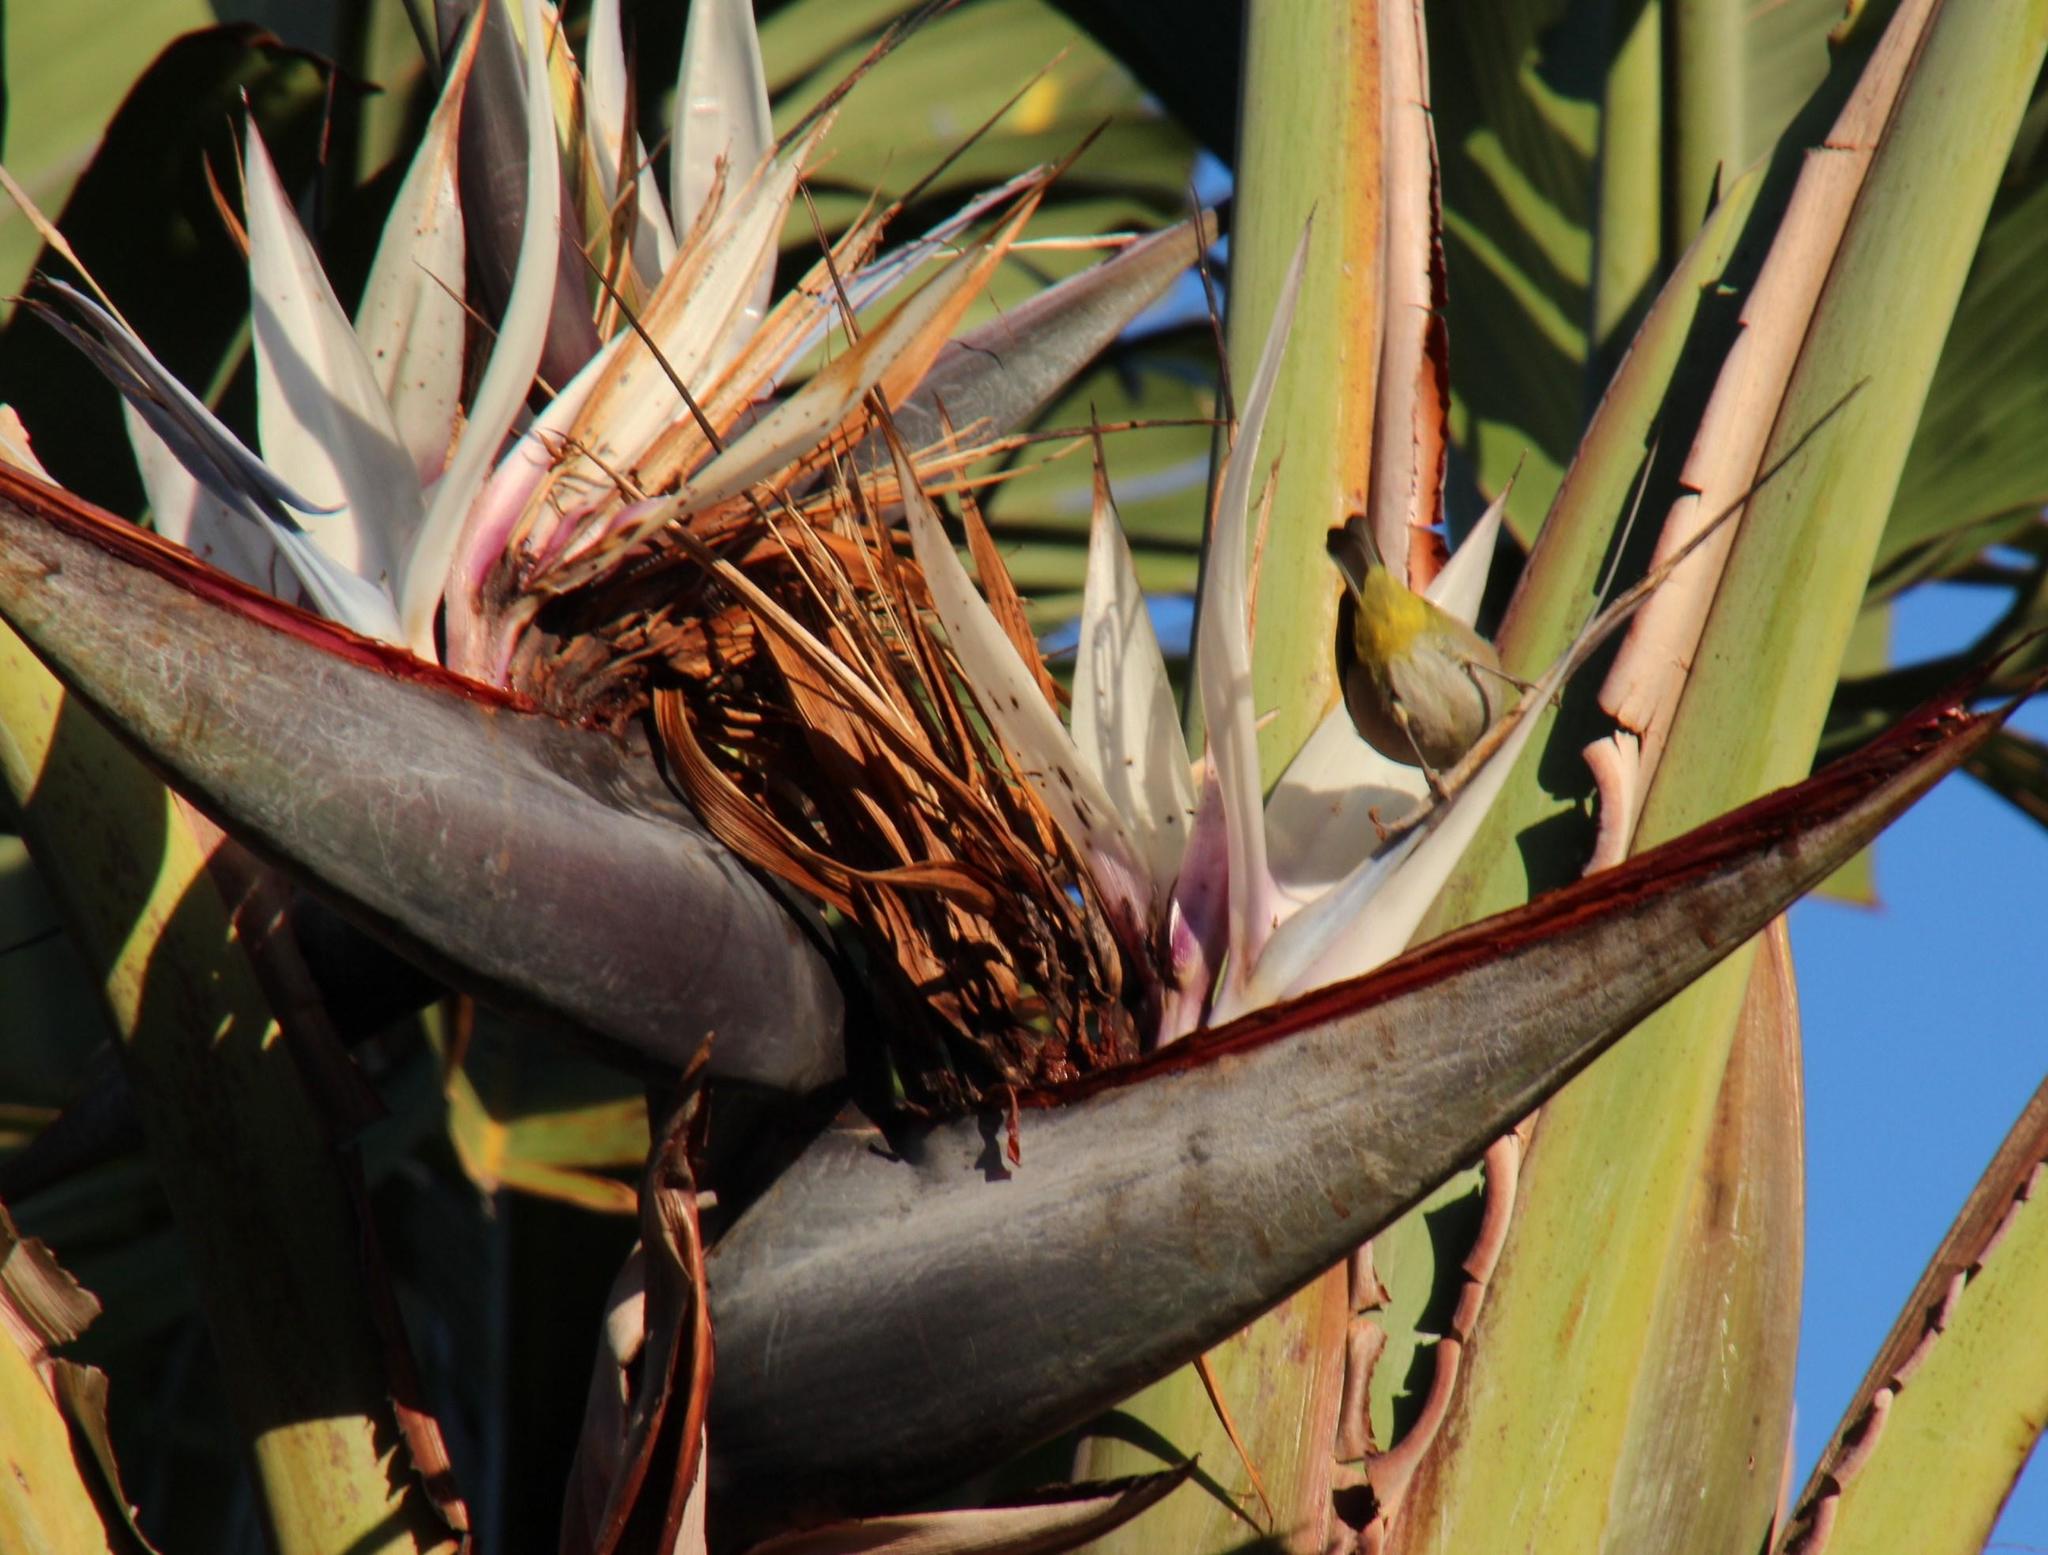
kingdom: Animalia
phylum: Chordata
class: Aves
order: Passeriformes
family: Zosteropidae
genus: Zosterops
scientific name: Zosterops virens
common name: Cape white-eye
